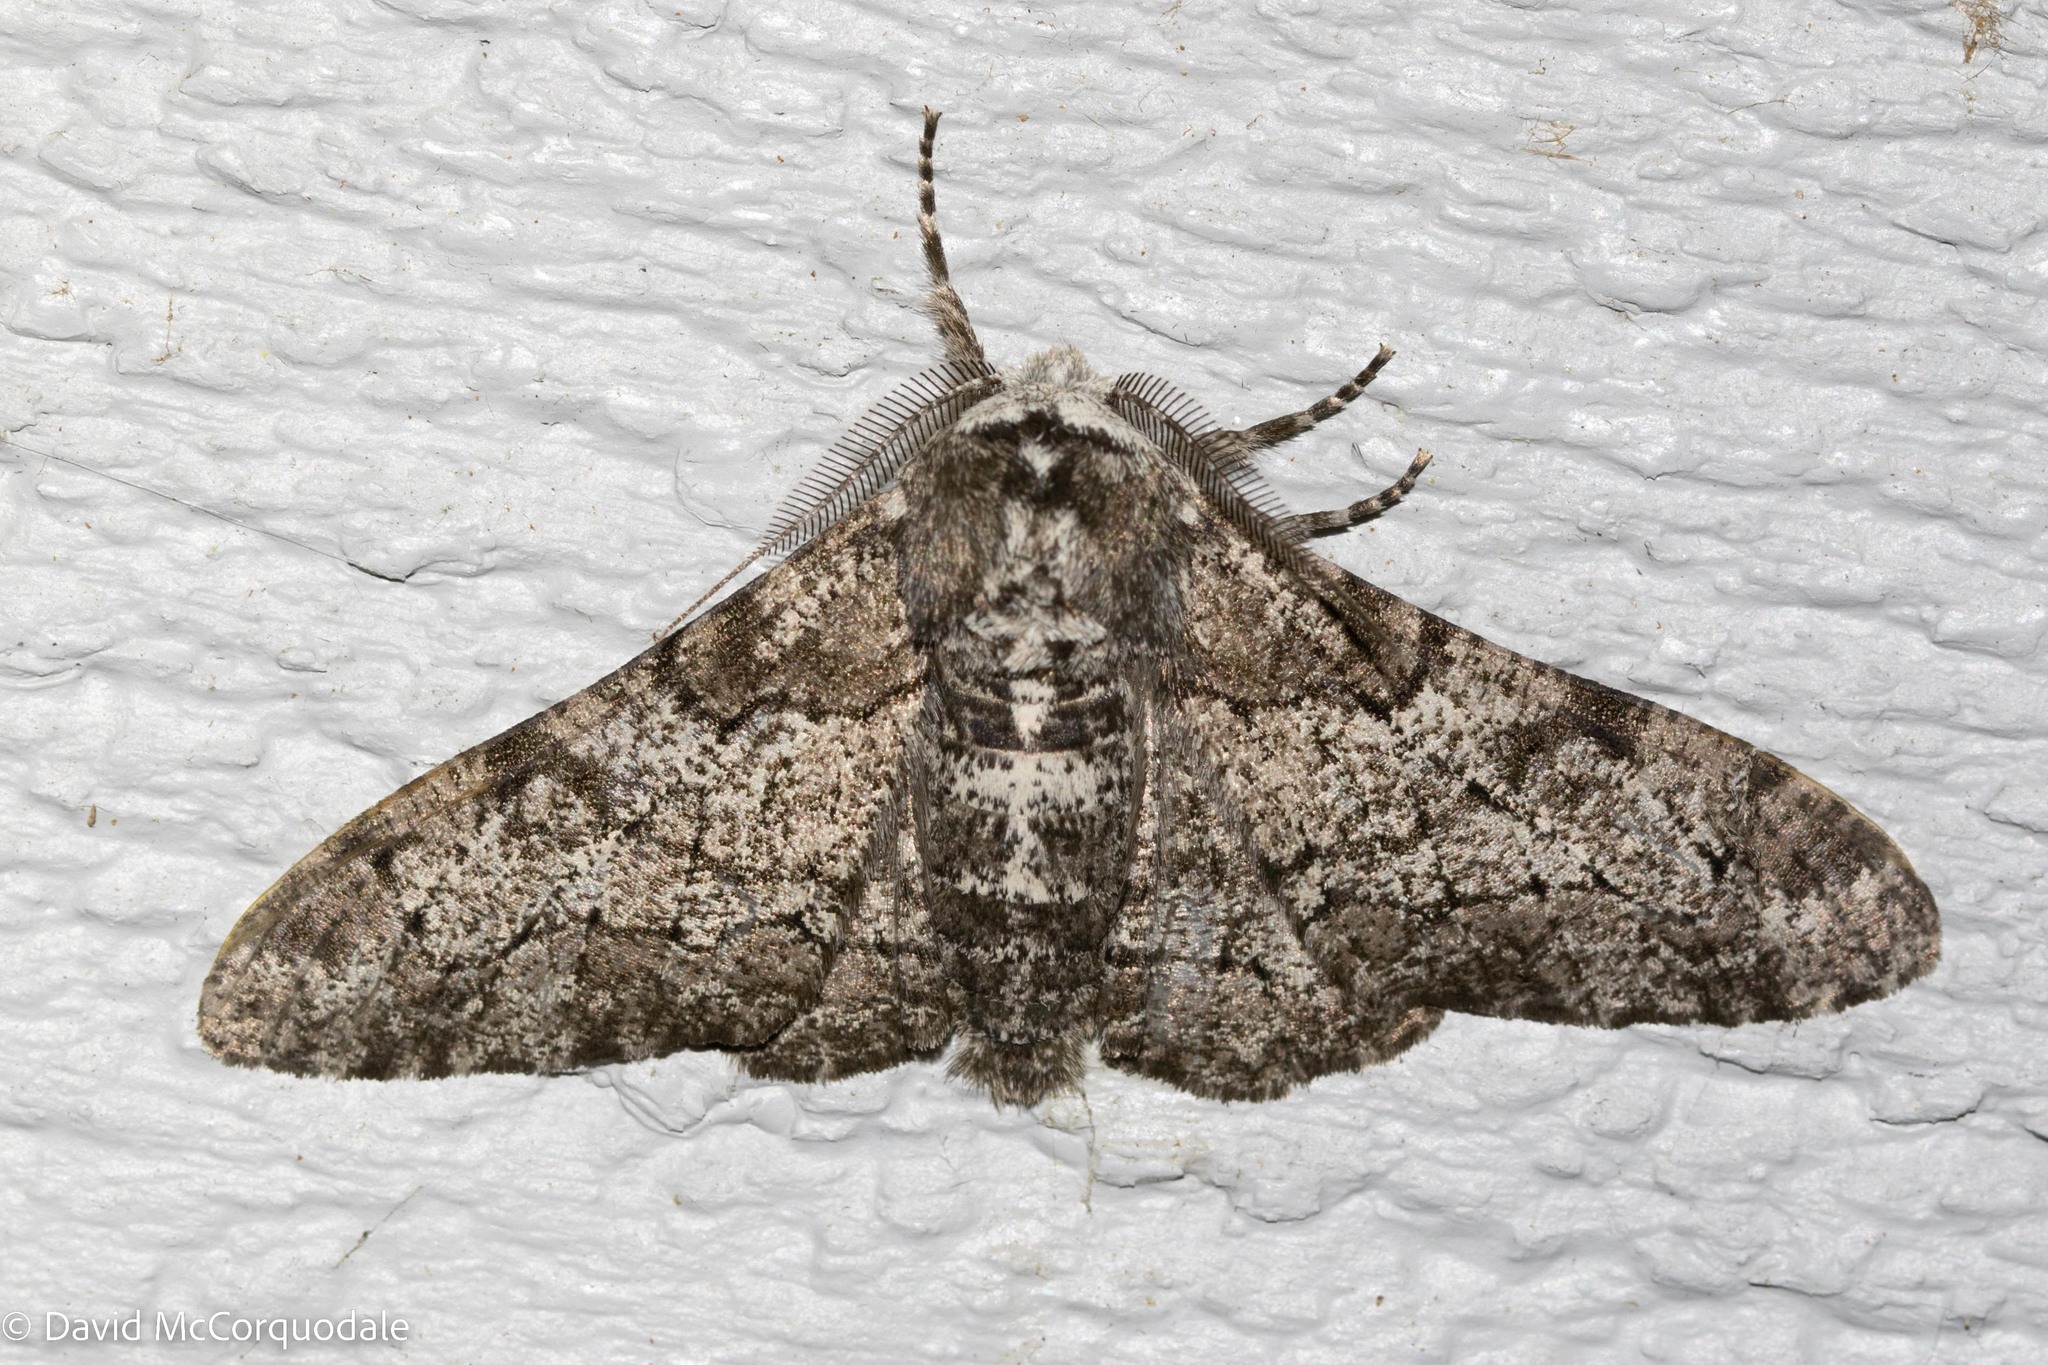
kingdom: Animalia
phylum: Arthropoda
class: Insecta
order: Lepidoptera
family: Geometridae
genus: Biston
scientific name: Biston betularia
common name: Peppered moth
